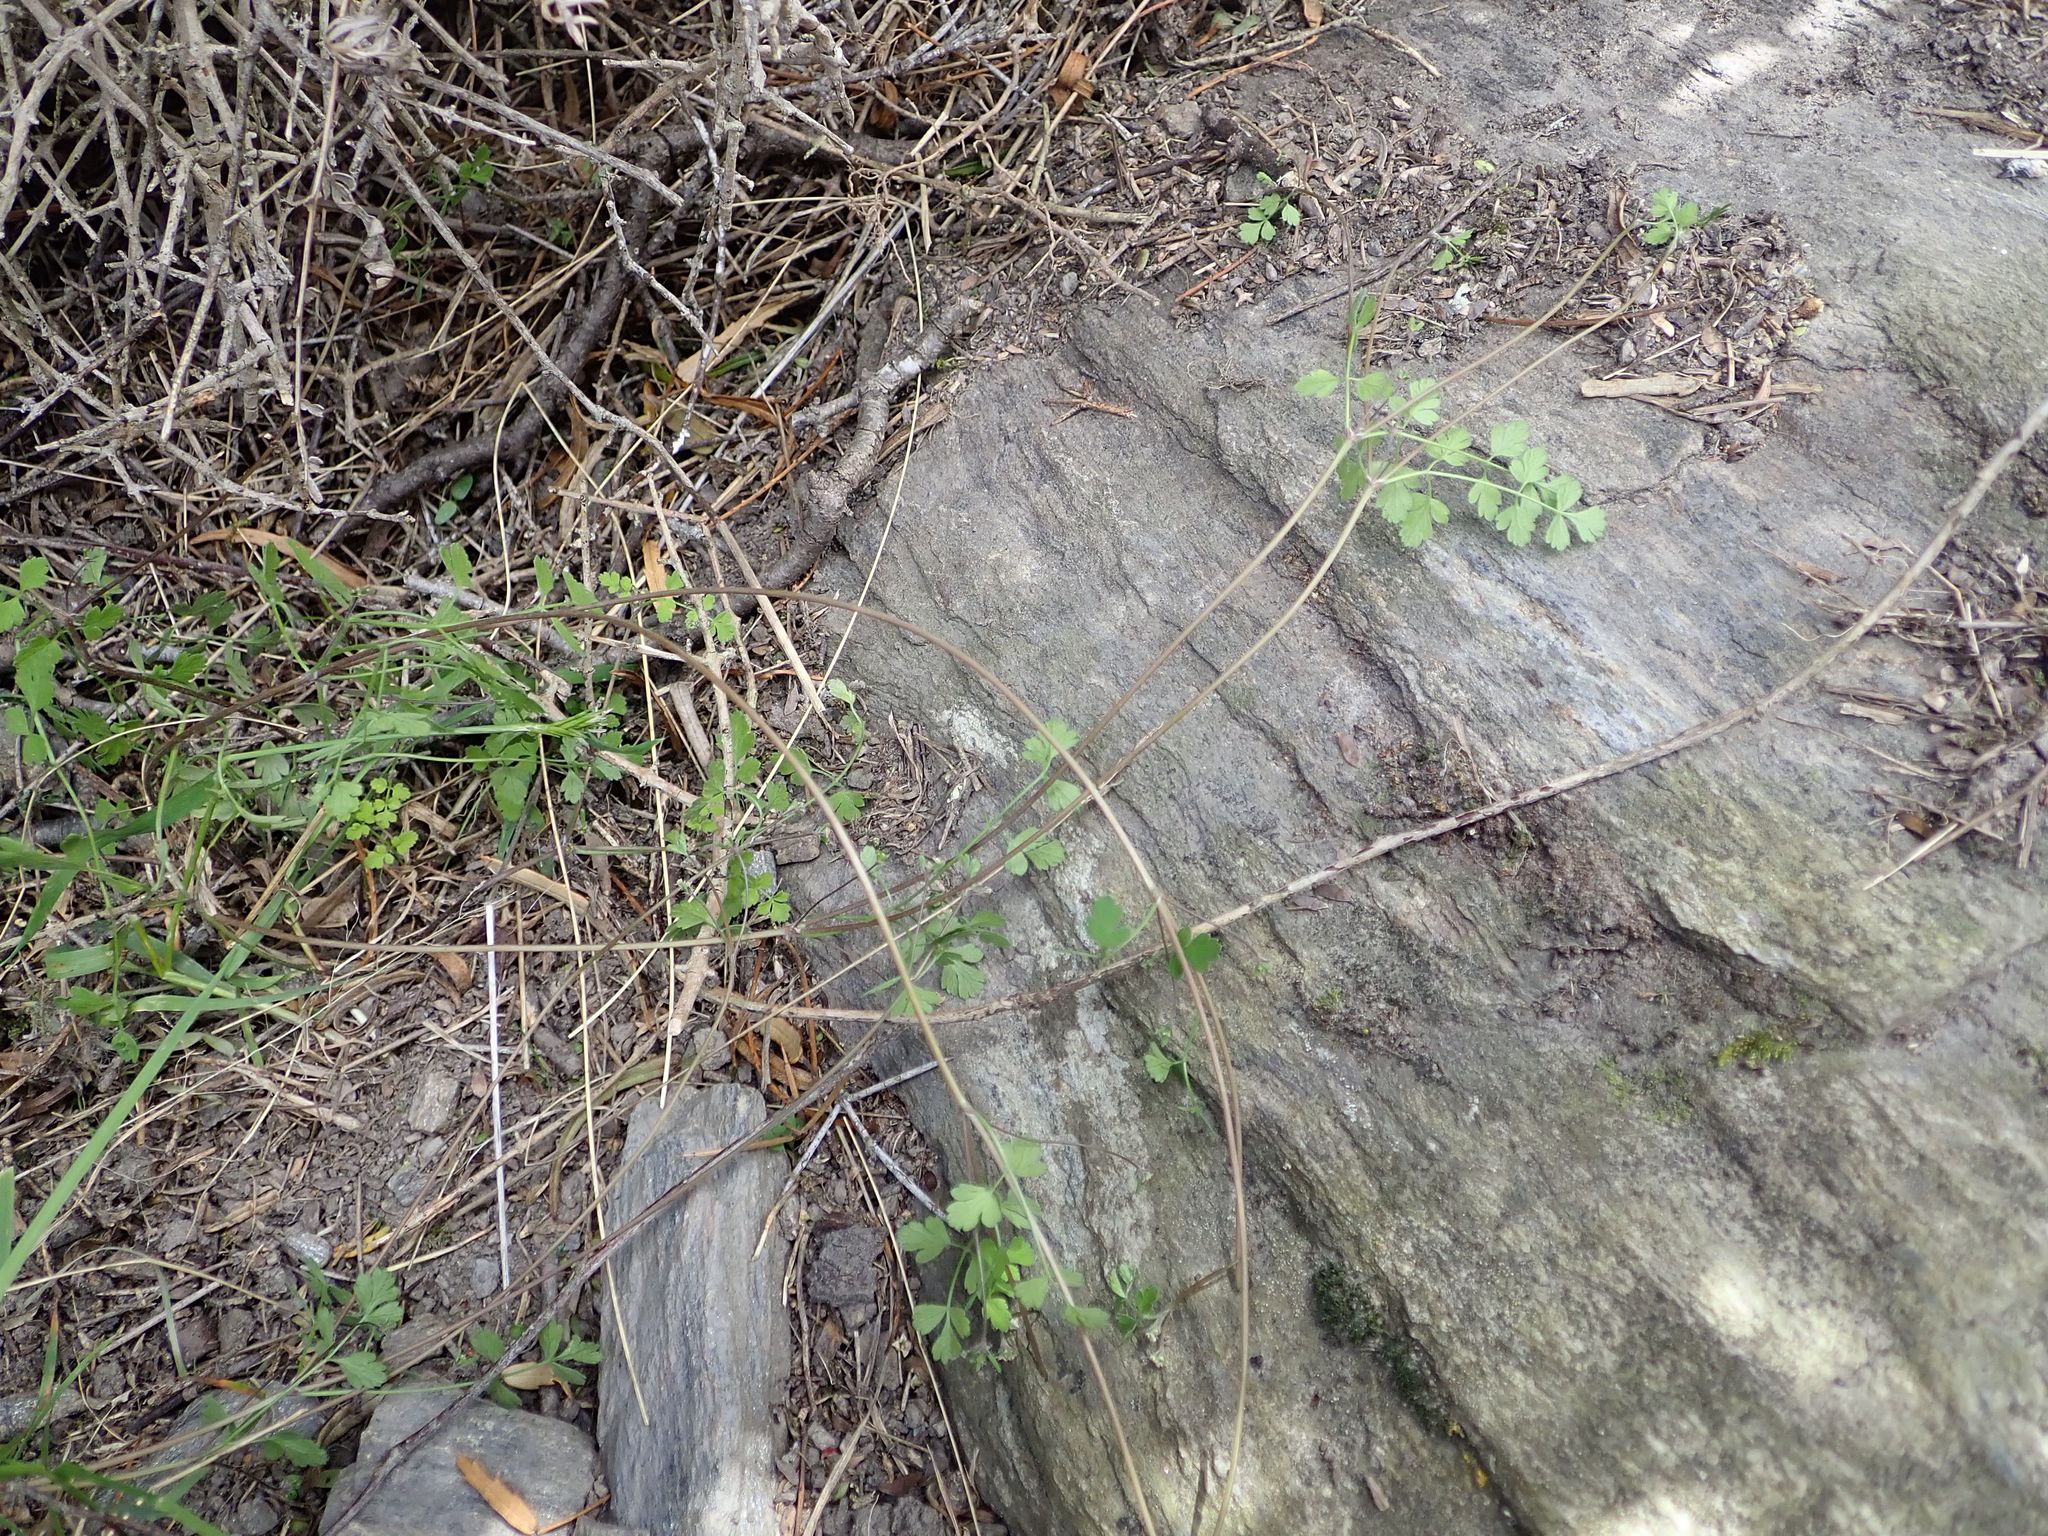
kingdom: Plantae
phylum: Tracheophyta
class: Magnoliopsida
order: Apiales
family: Apiaceae
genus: Chaerophyllum
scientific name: Chaerophyllum ramosum
